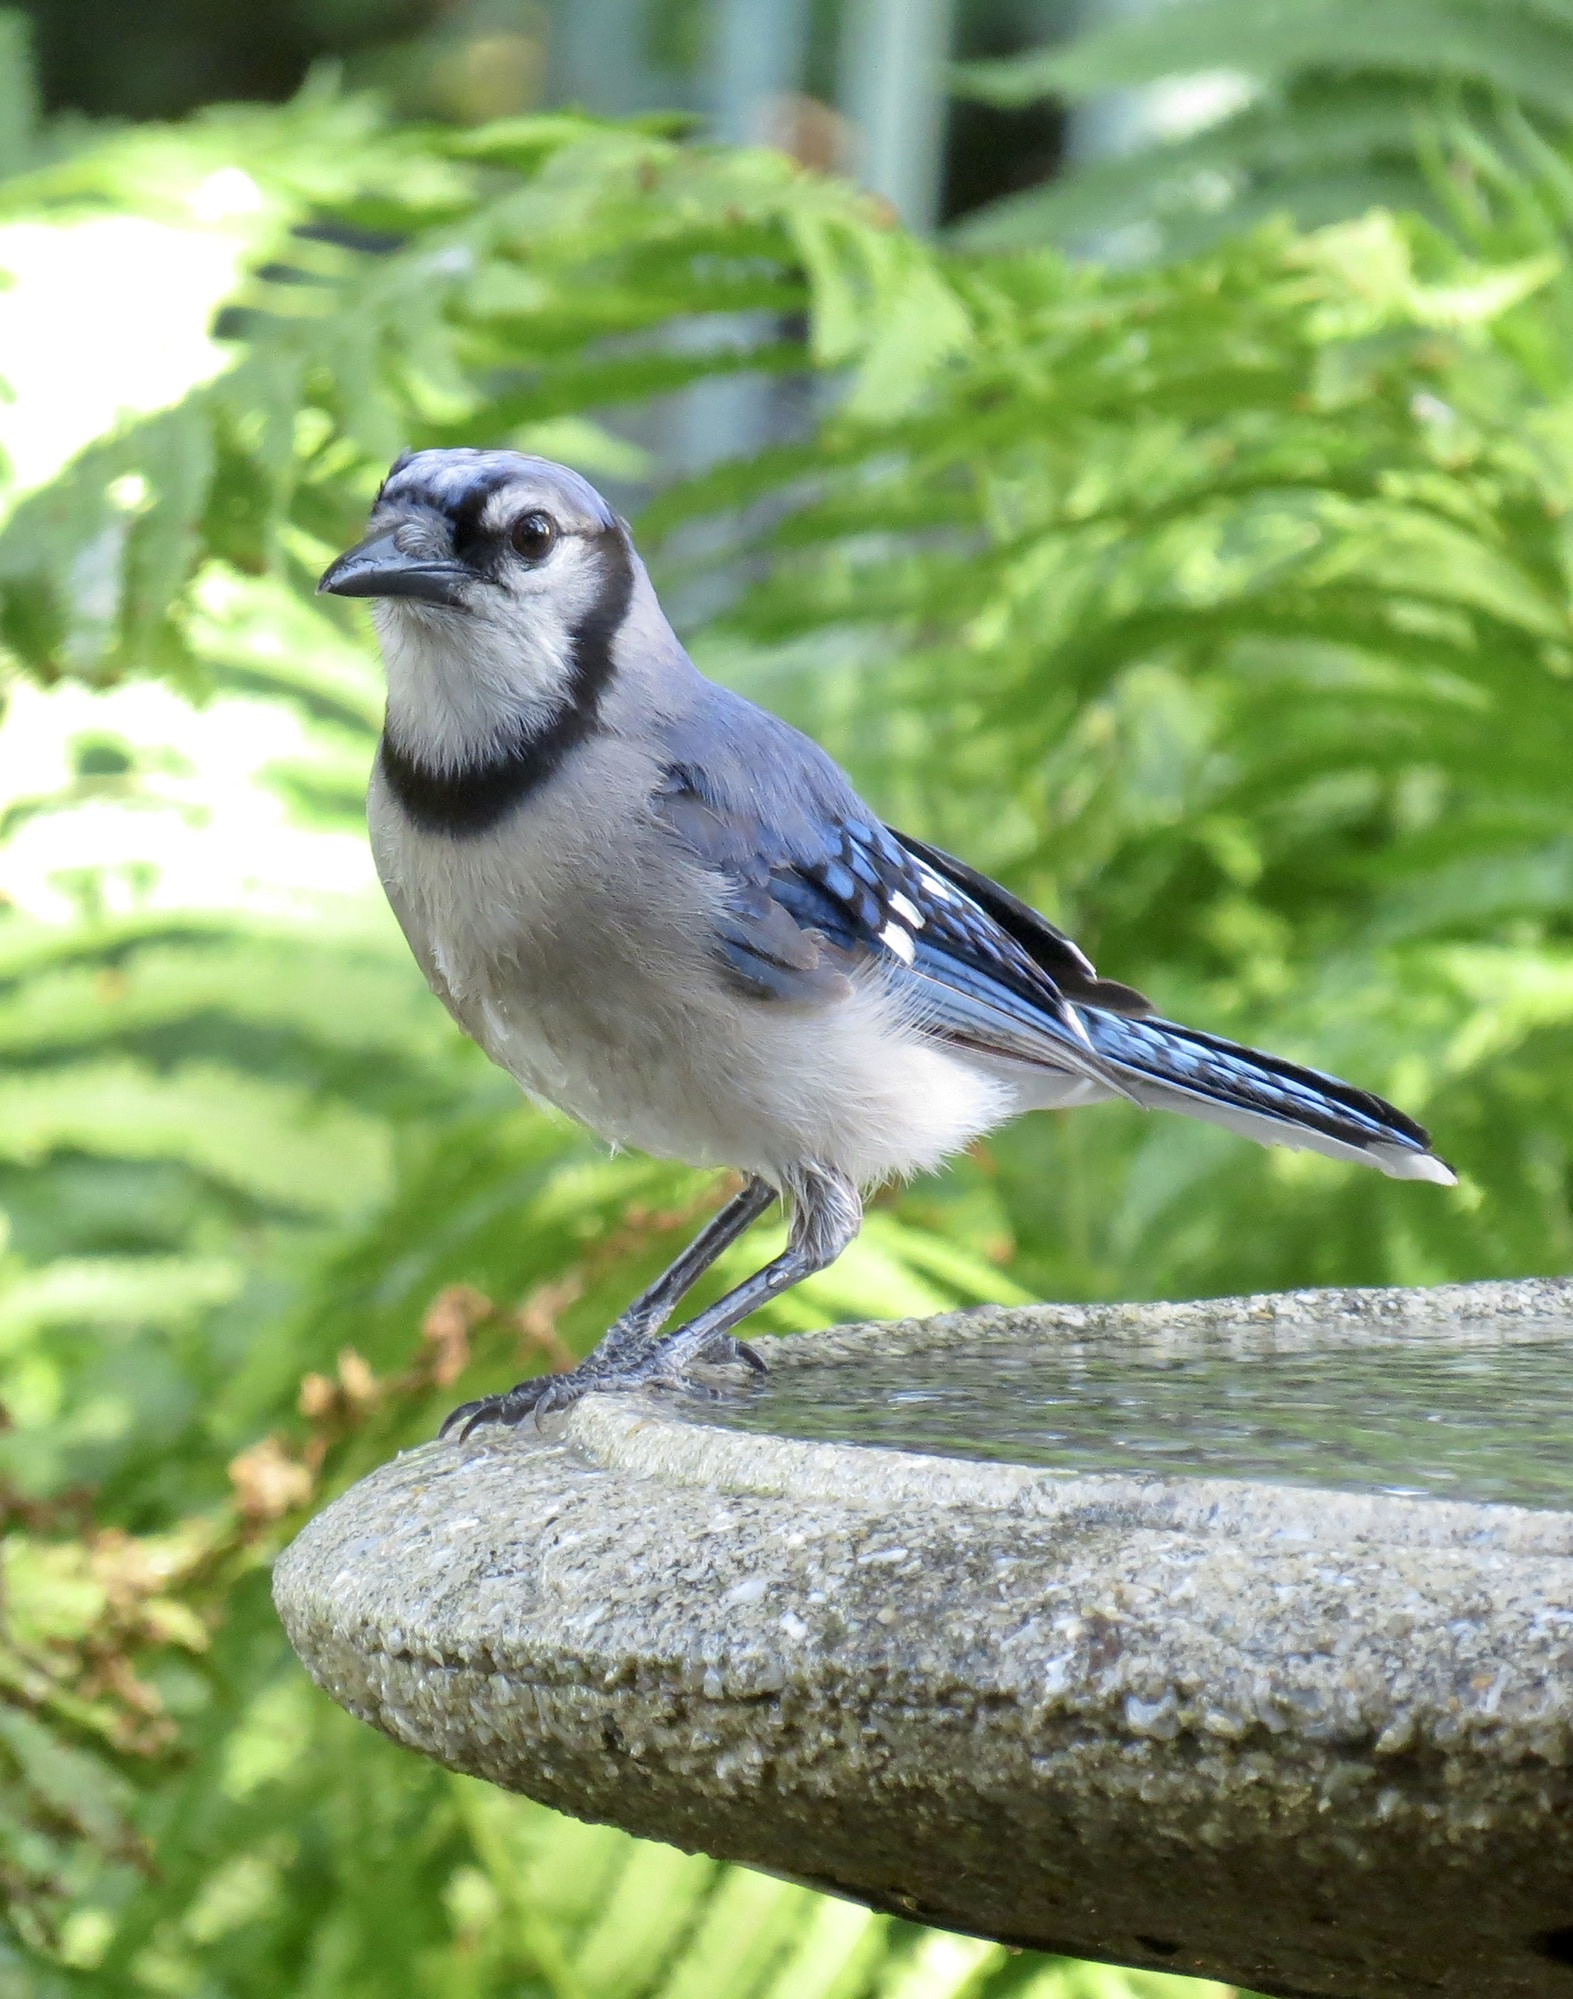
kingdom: Animalia
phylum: Chordata
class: Aves
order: Passeriformes
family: Corvidae
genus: Cyanocitta
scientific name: Cyanocitta cristata
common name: Blue jay
